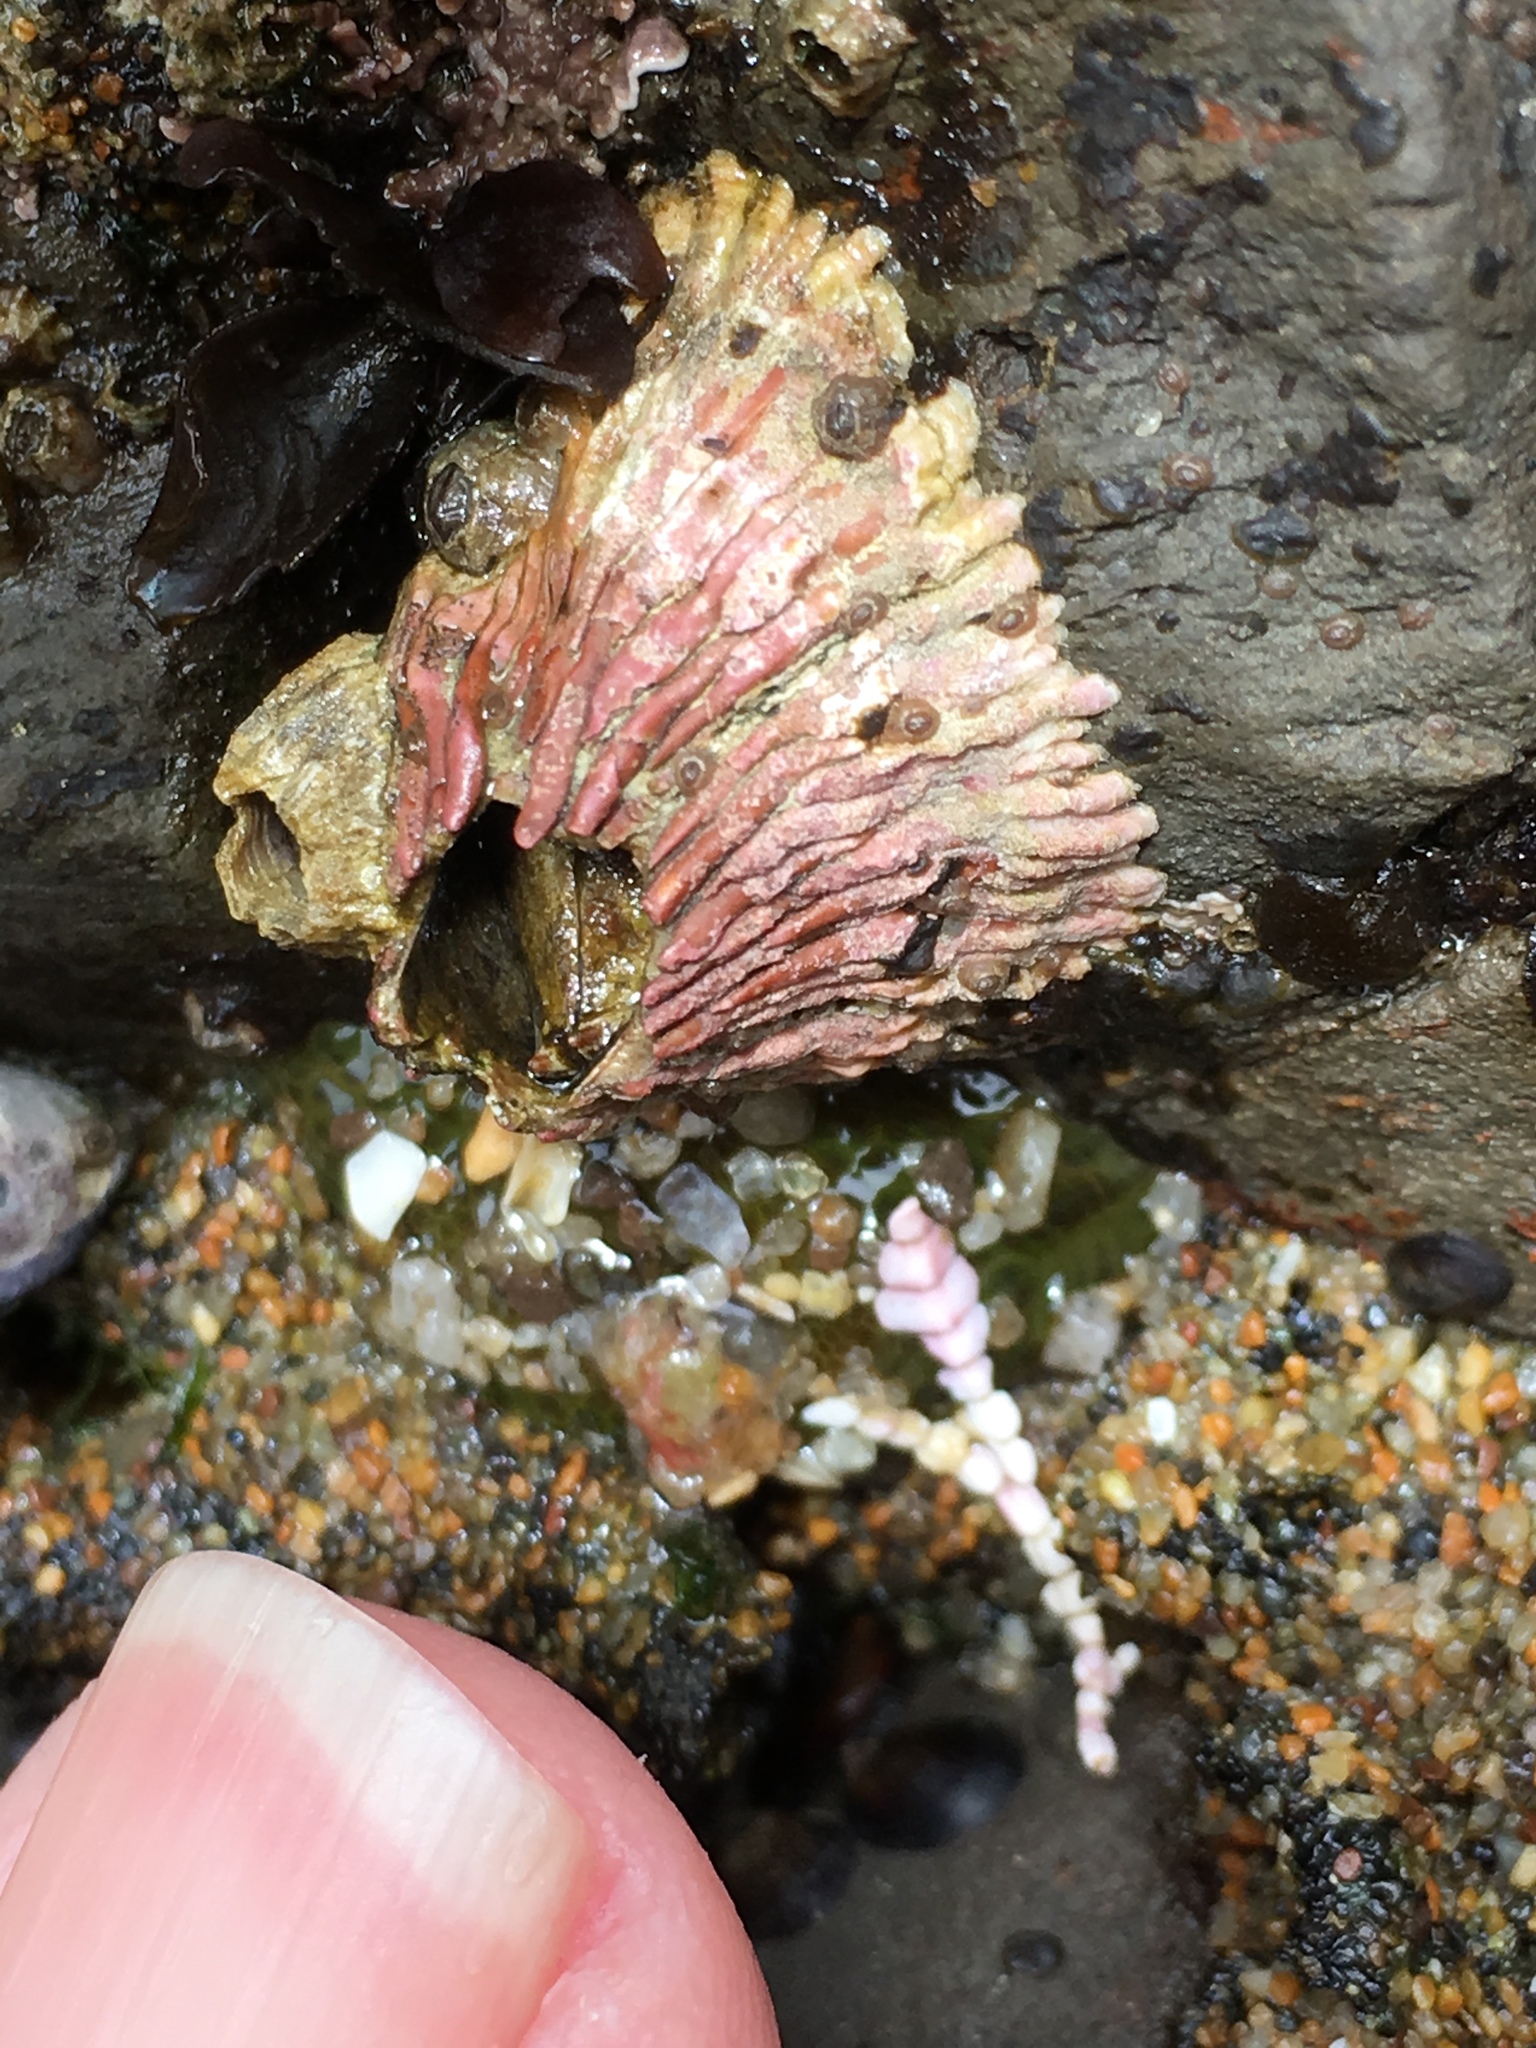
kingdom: Animalia
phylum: Arthropoda
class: Maxillopoda
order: Sessilia
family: Tetraclitidae
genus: Tetraclita
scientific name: Tetraclita rubescens
